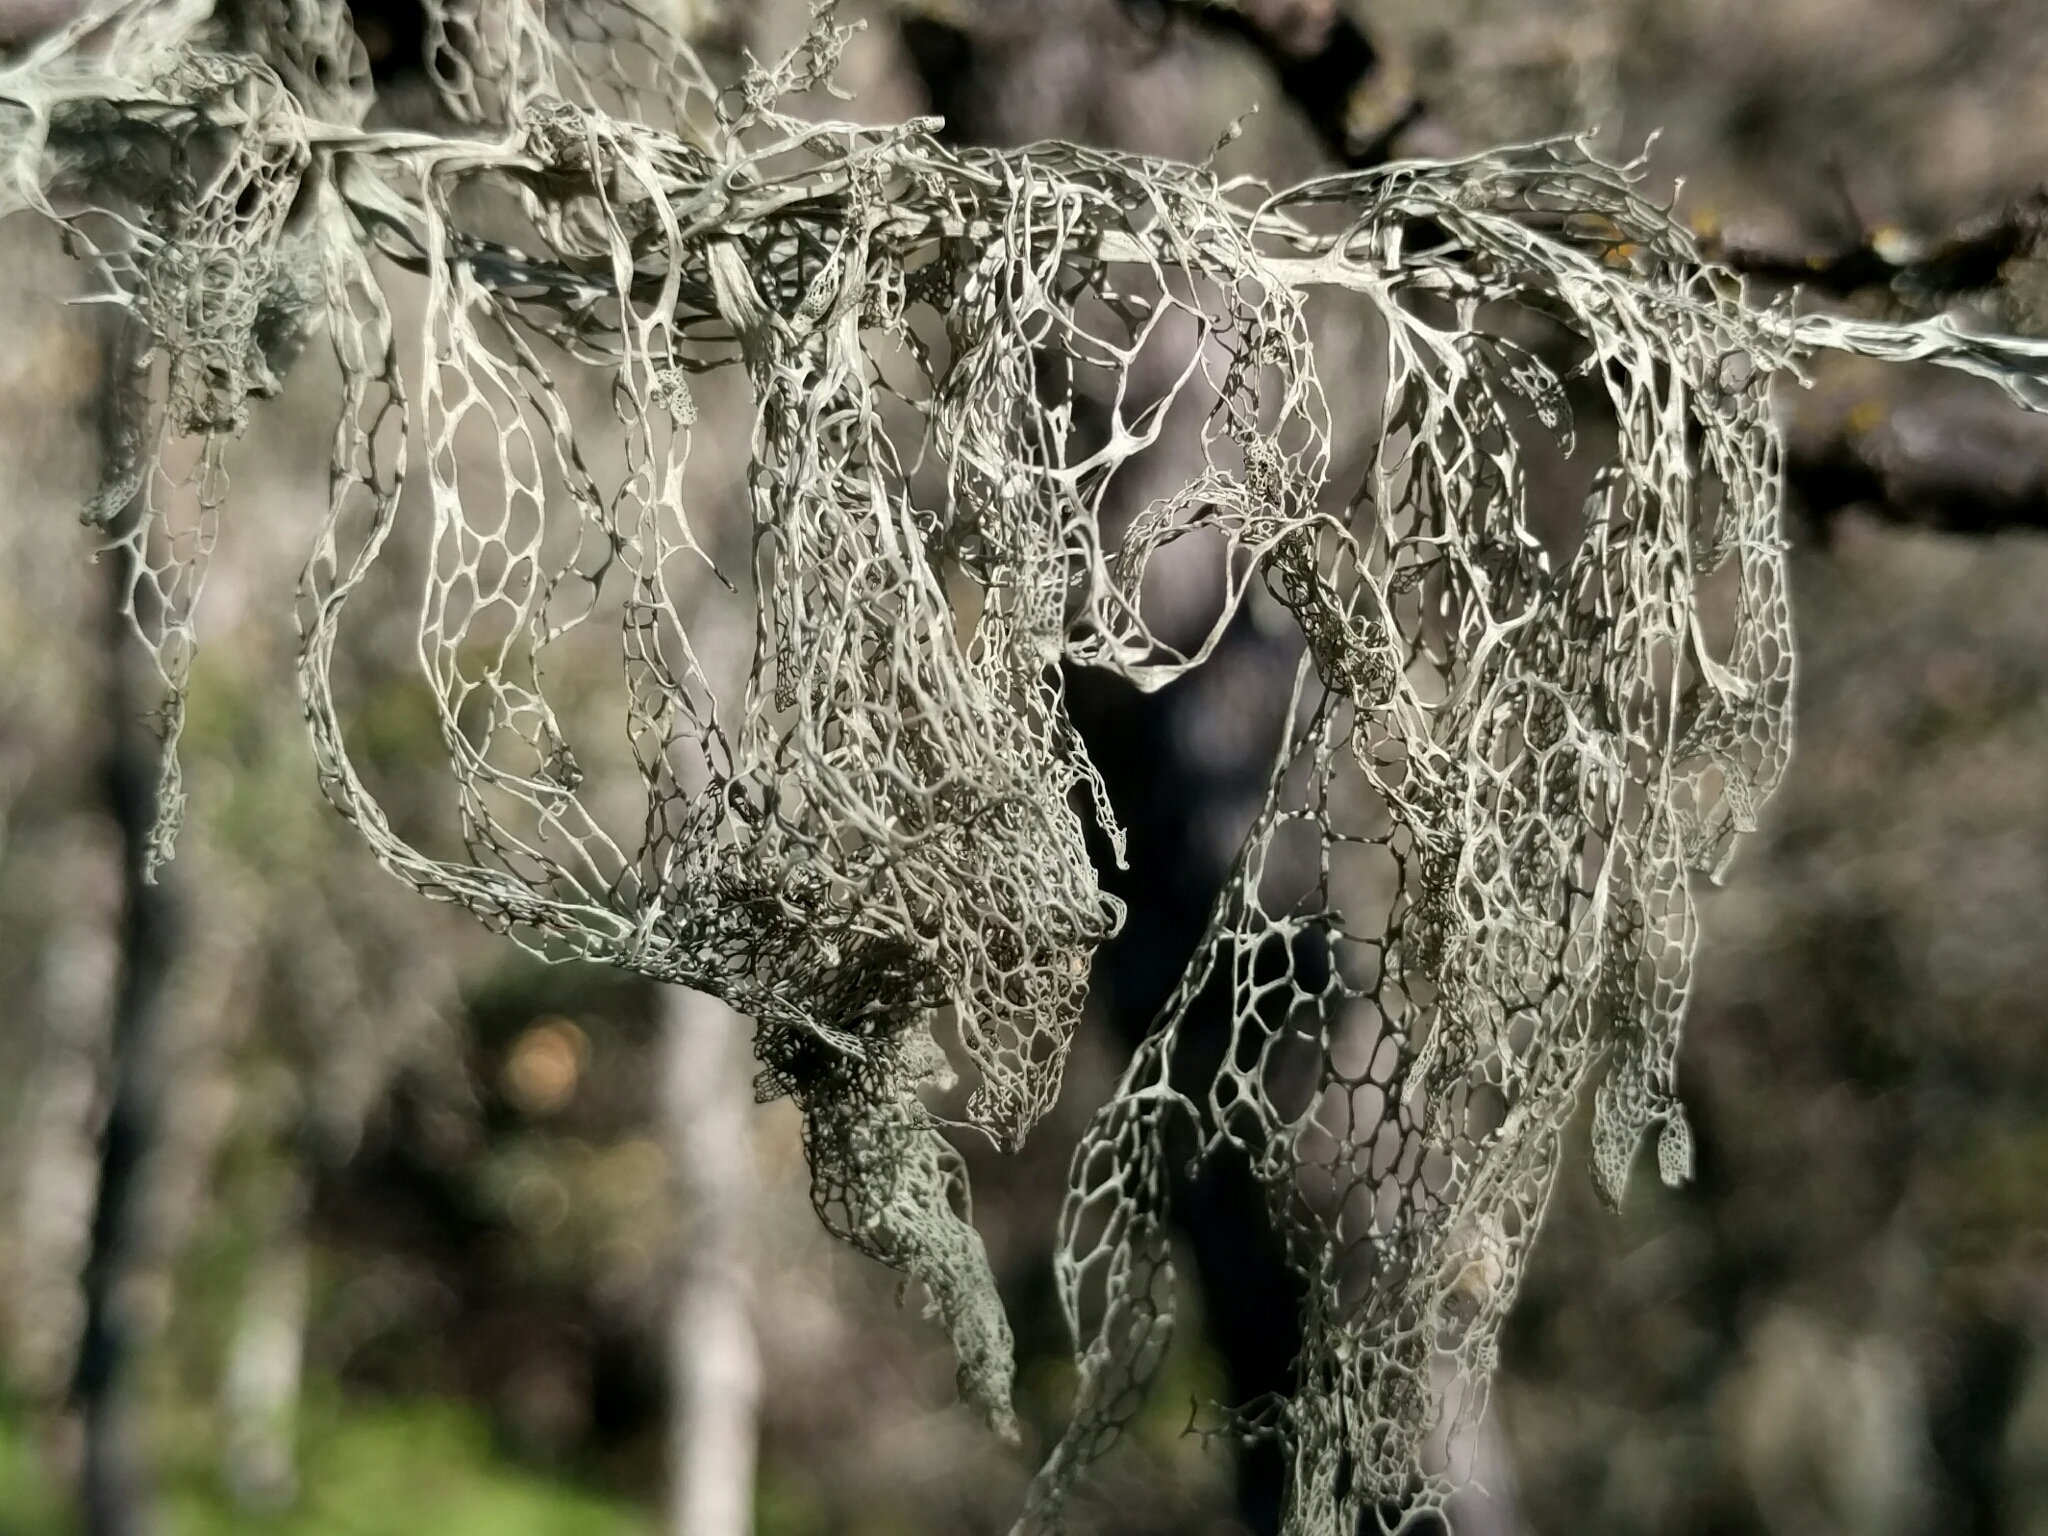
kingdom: Fungi
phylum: Ascomycota
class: Lecanoromycetes
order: Lecanorales
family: Ramalinaceae
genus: Ramalina
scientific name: Ramalina menziesii
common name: Lace lichen
